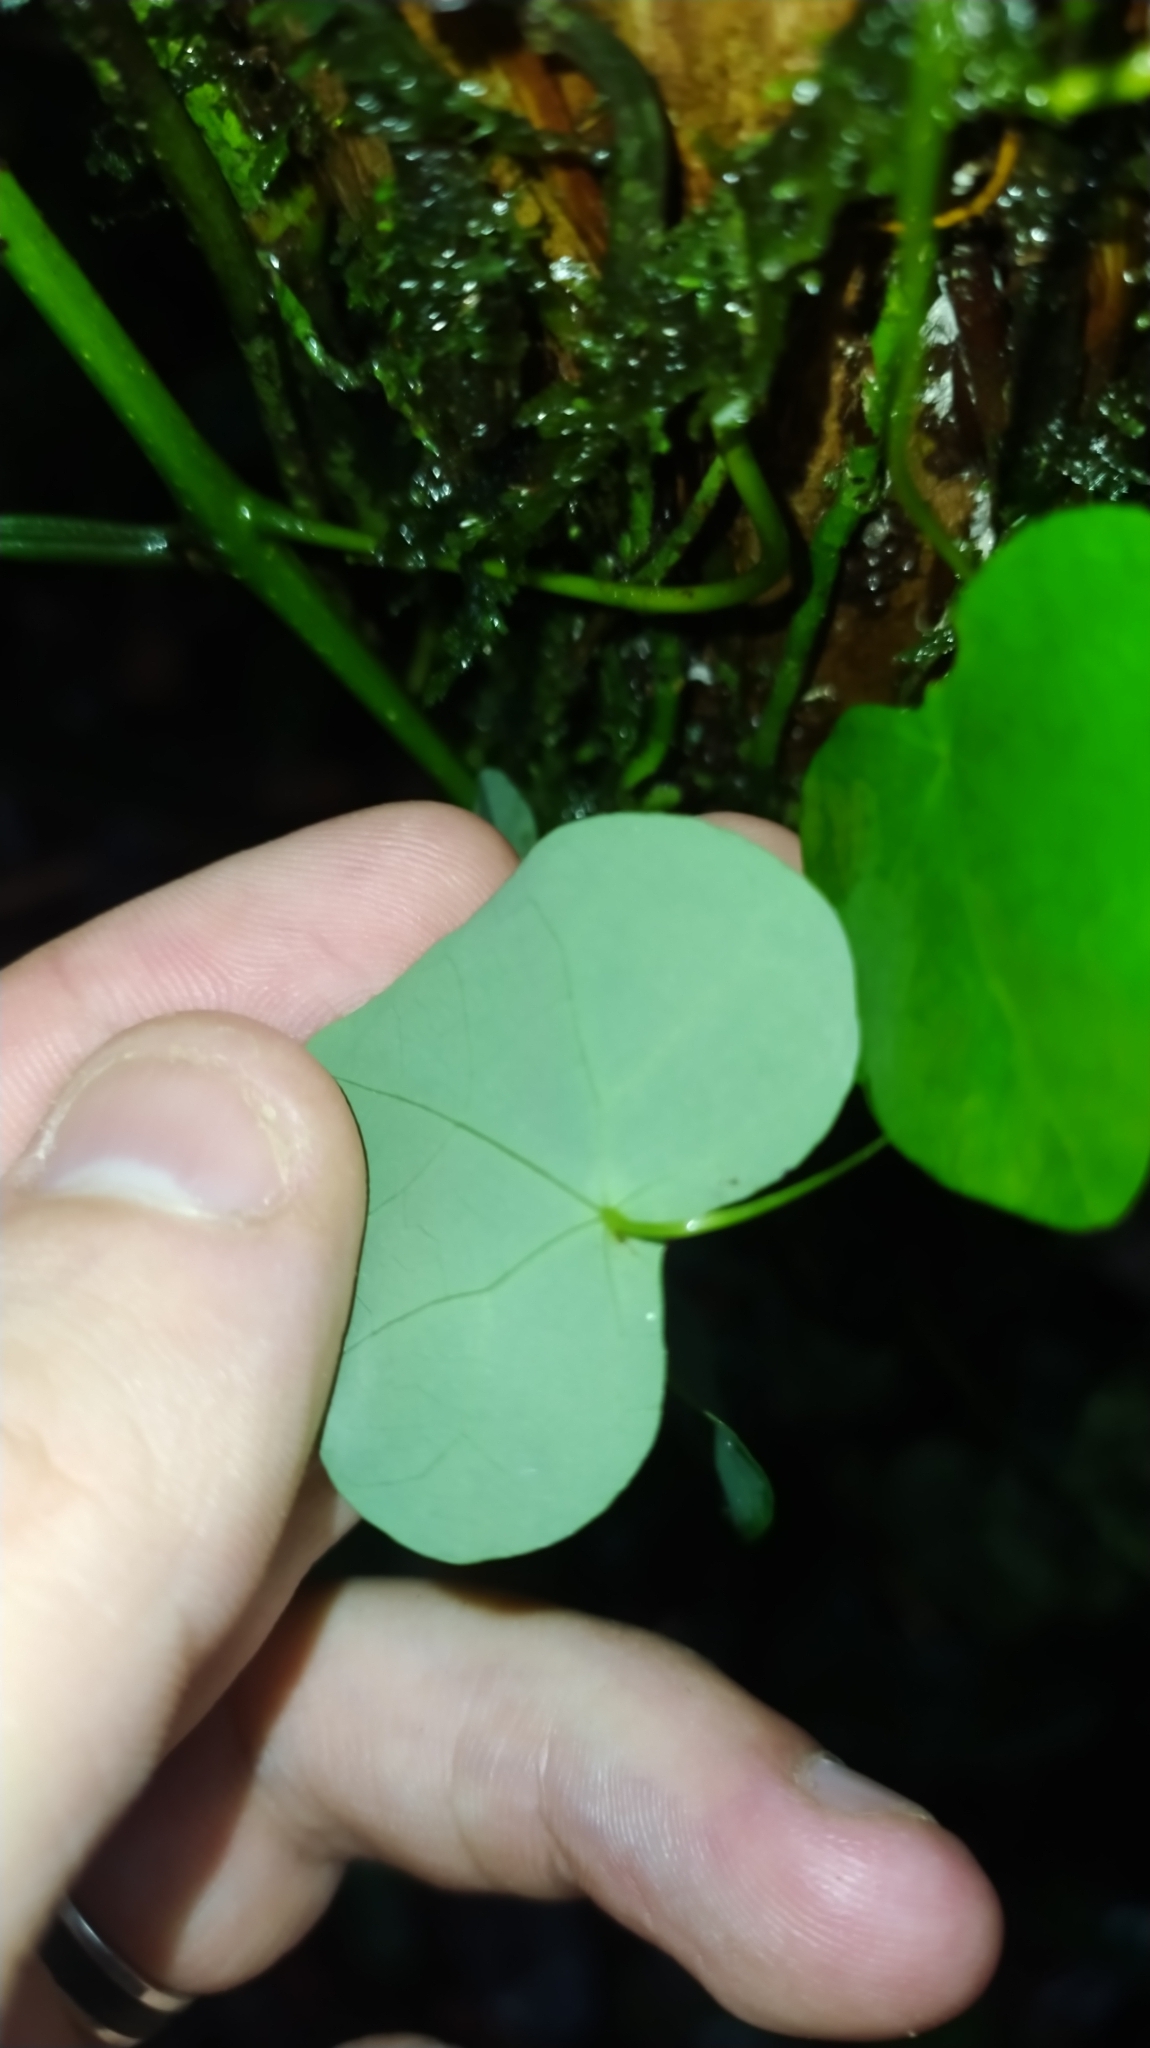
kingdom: Plantae
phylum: Tracheophyta
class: Magnoliopsida
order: Ranunculales
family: Menispermaceae
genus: Cissampelos
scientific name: Cissampelos andromorpha
